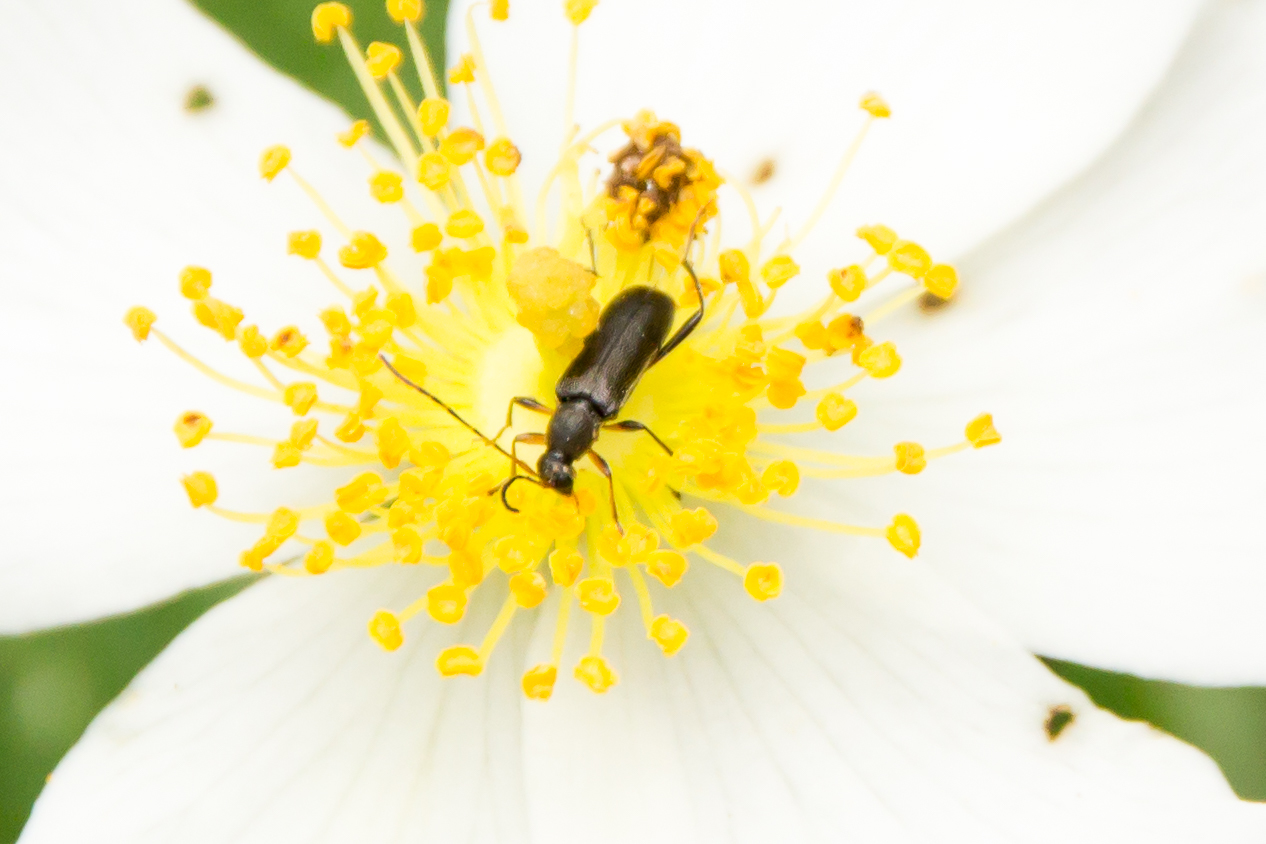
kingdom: Animalia
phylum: Arthropoda
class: Insecta
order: Coleoptera
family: Cerambycidae
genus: Grammoptera
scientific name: Grammoptera ruficornis
